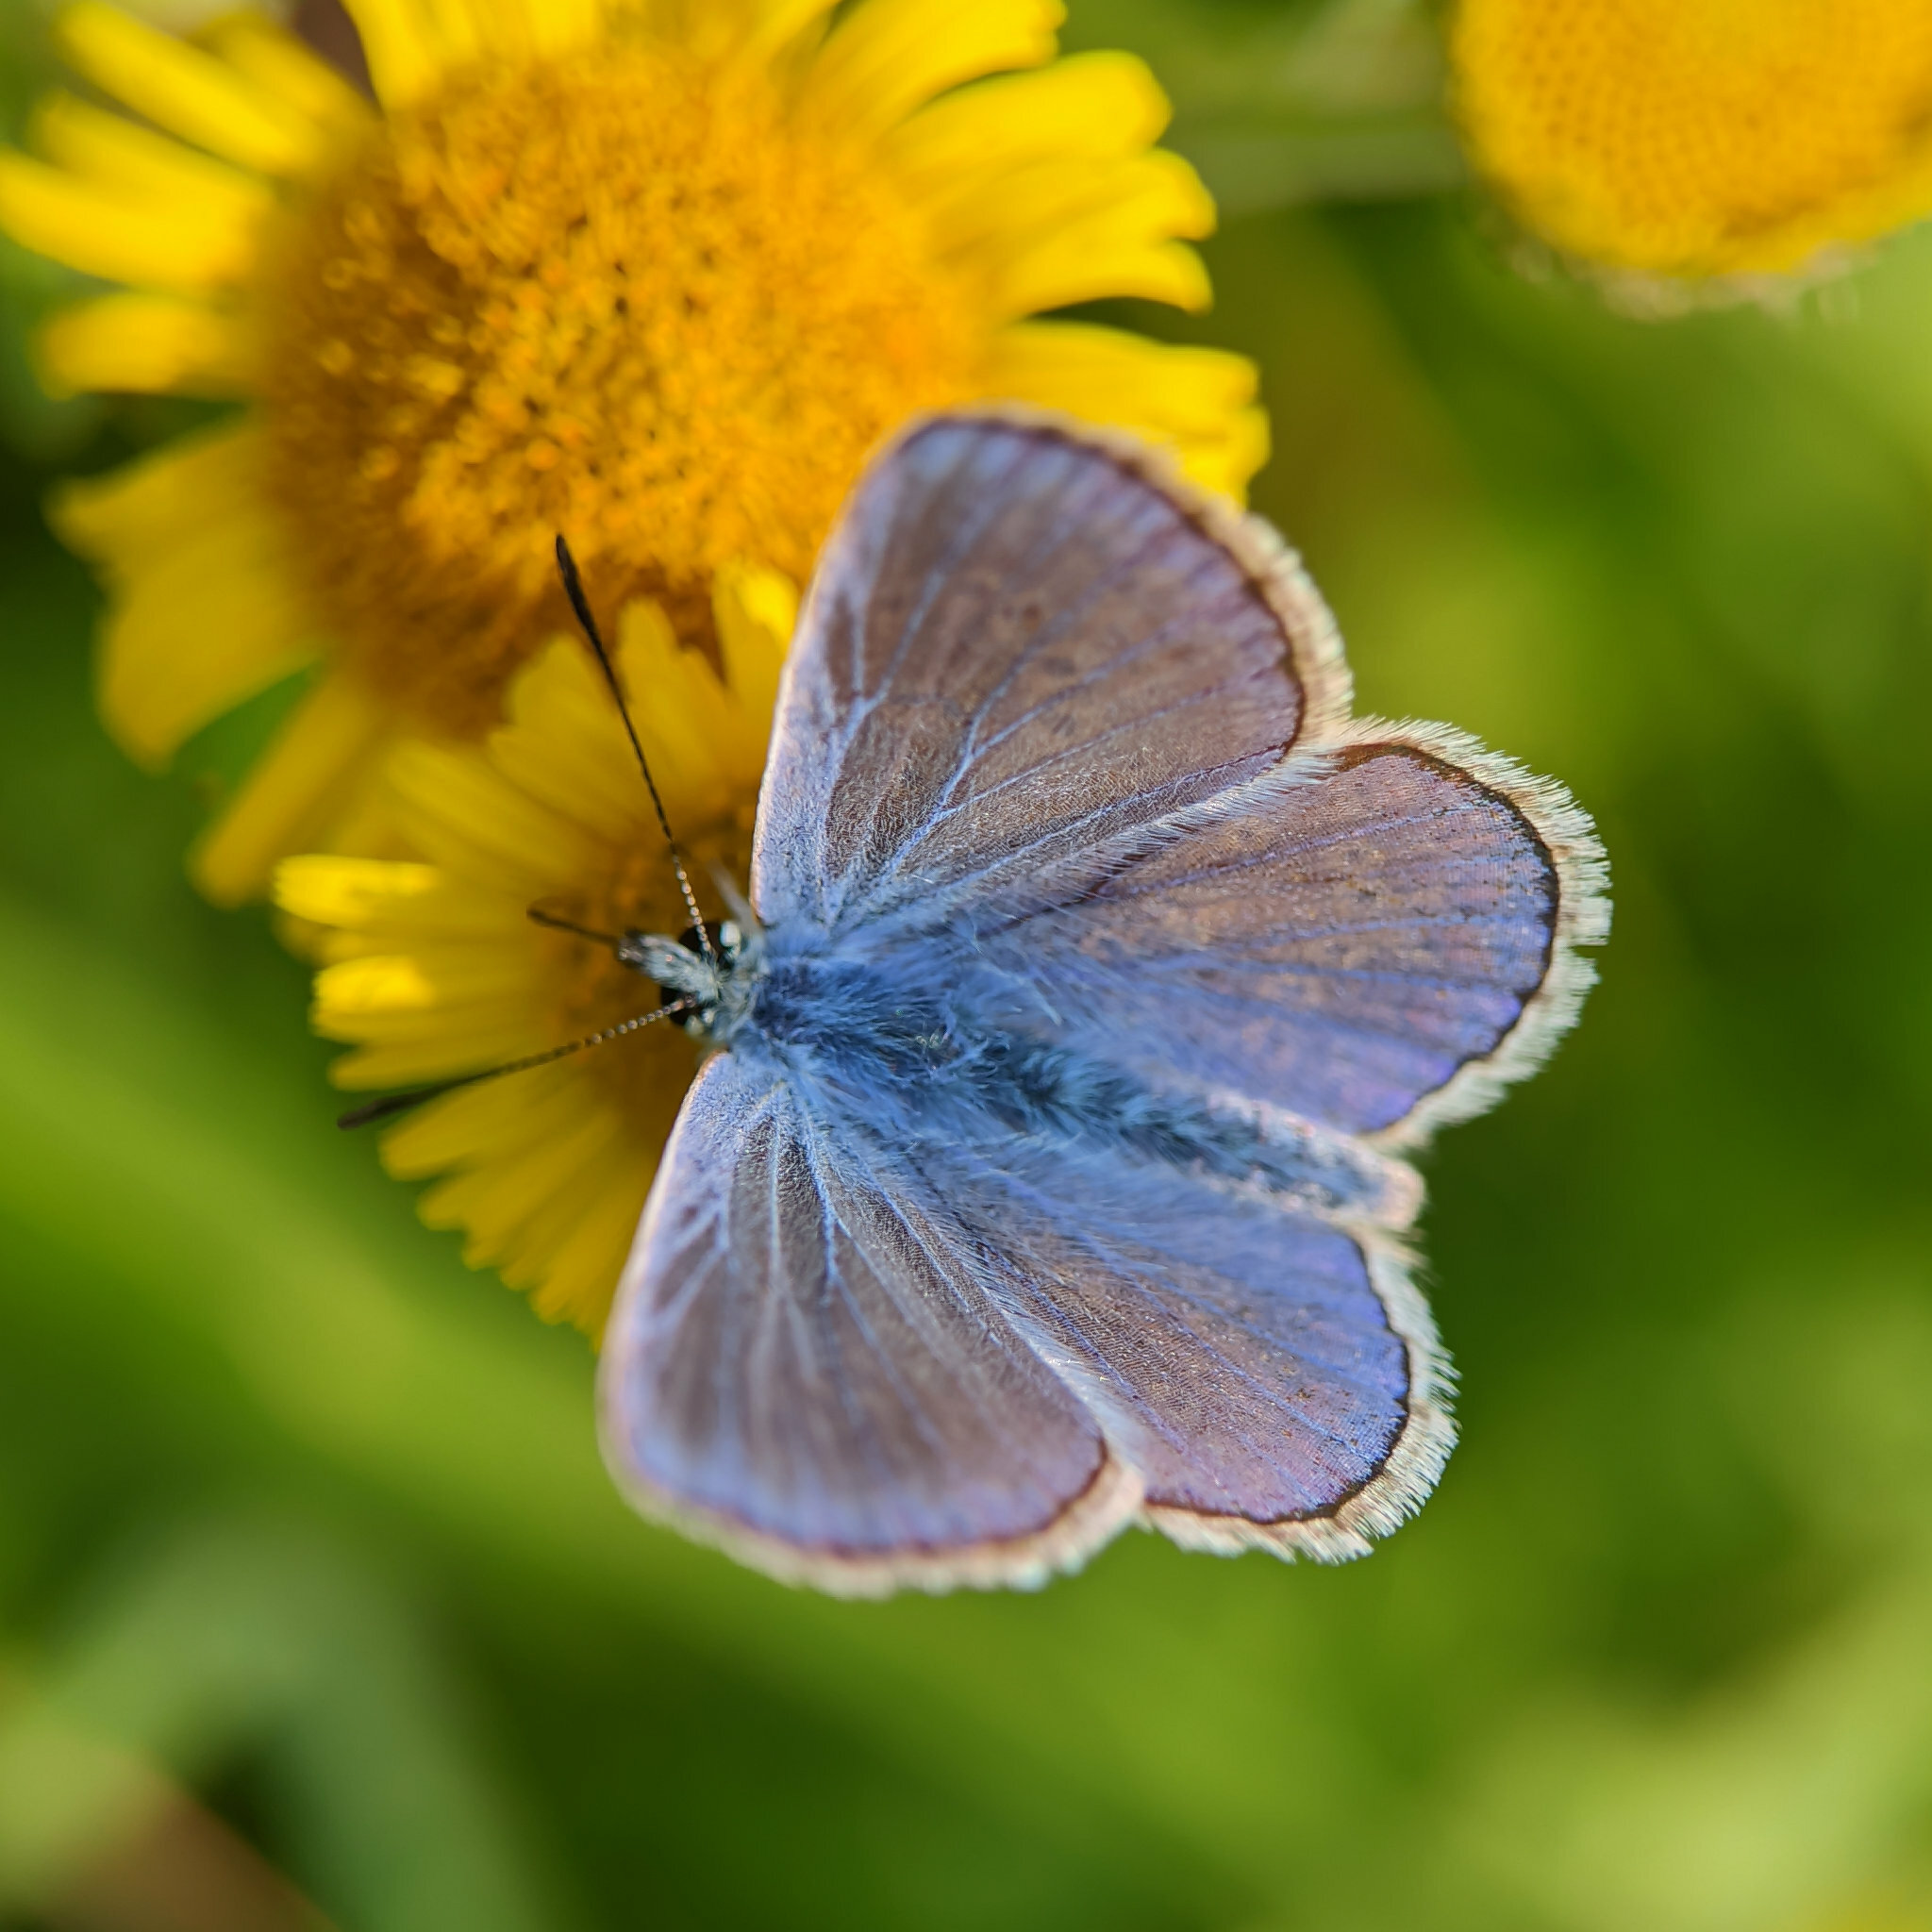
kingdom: Animalia
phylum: Arthropoda
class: Insecta
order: Lepidoptera
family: Lycaenidae
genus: Polyommatus
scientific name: Polyommatus icarus
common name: Common blue
